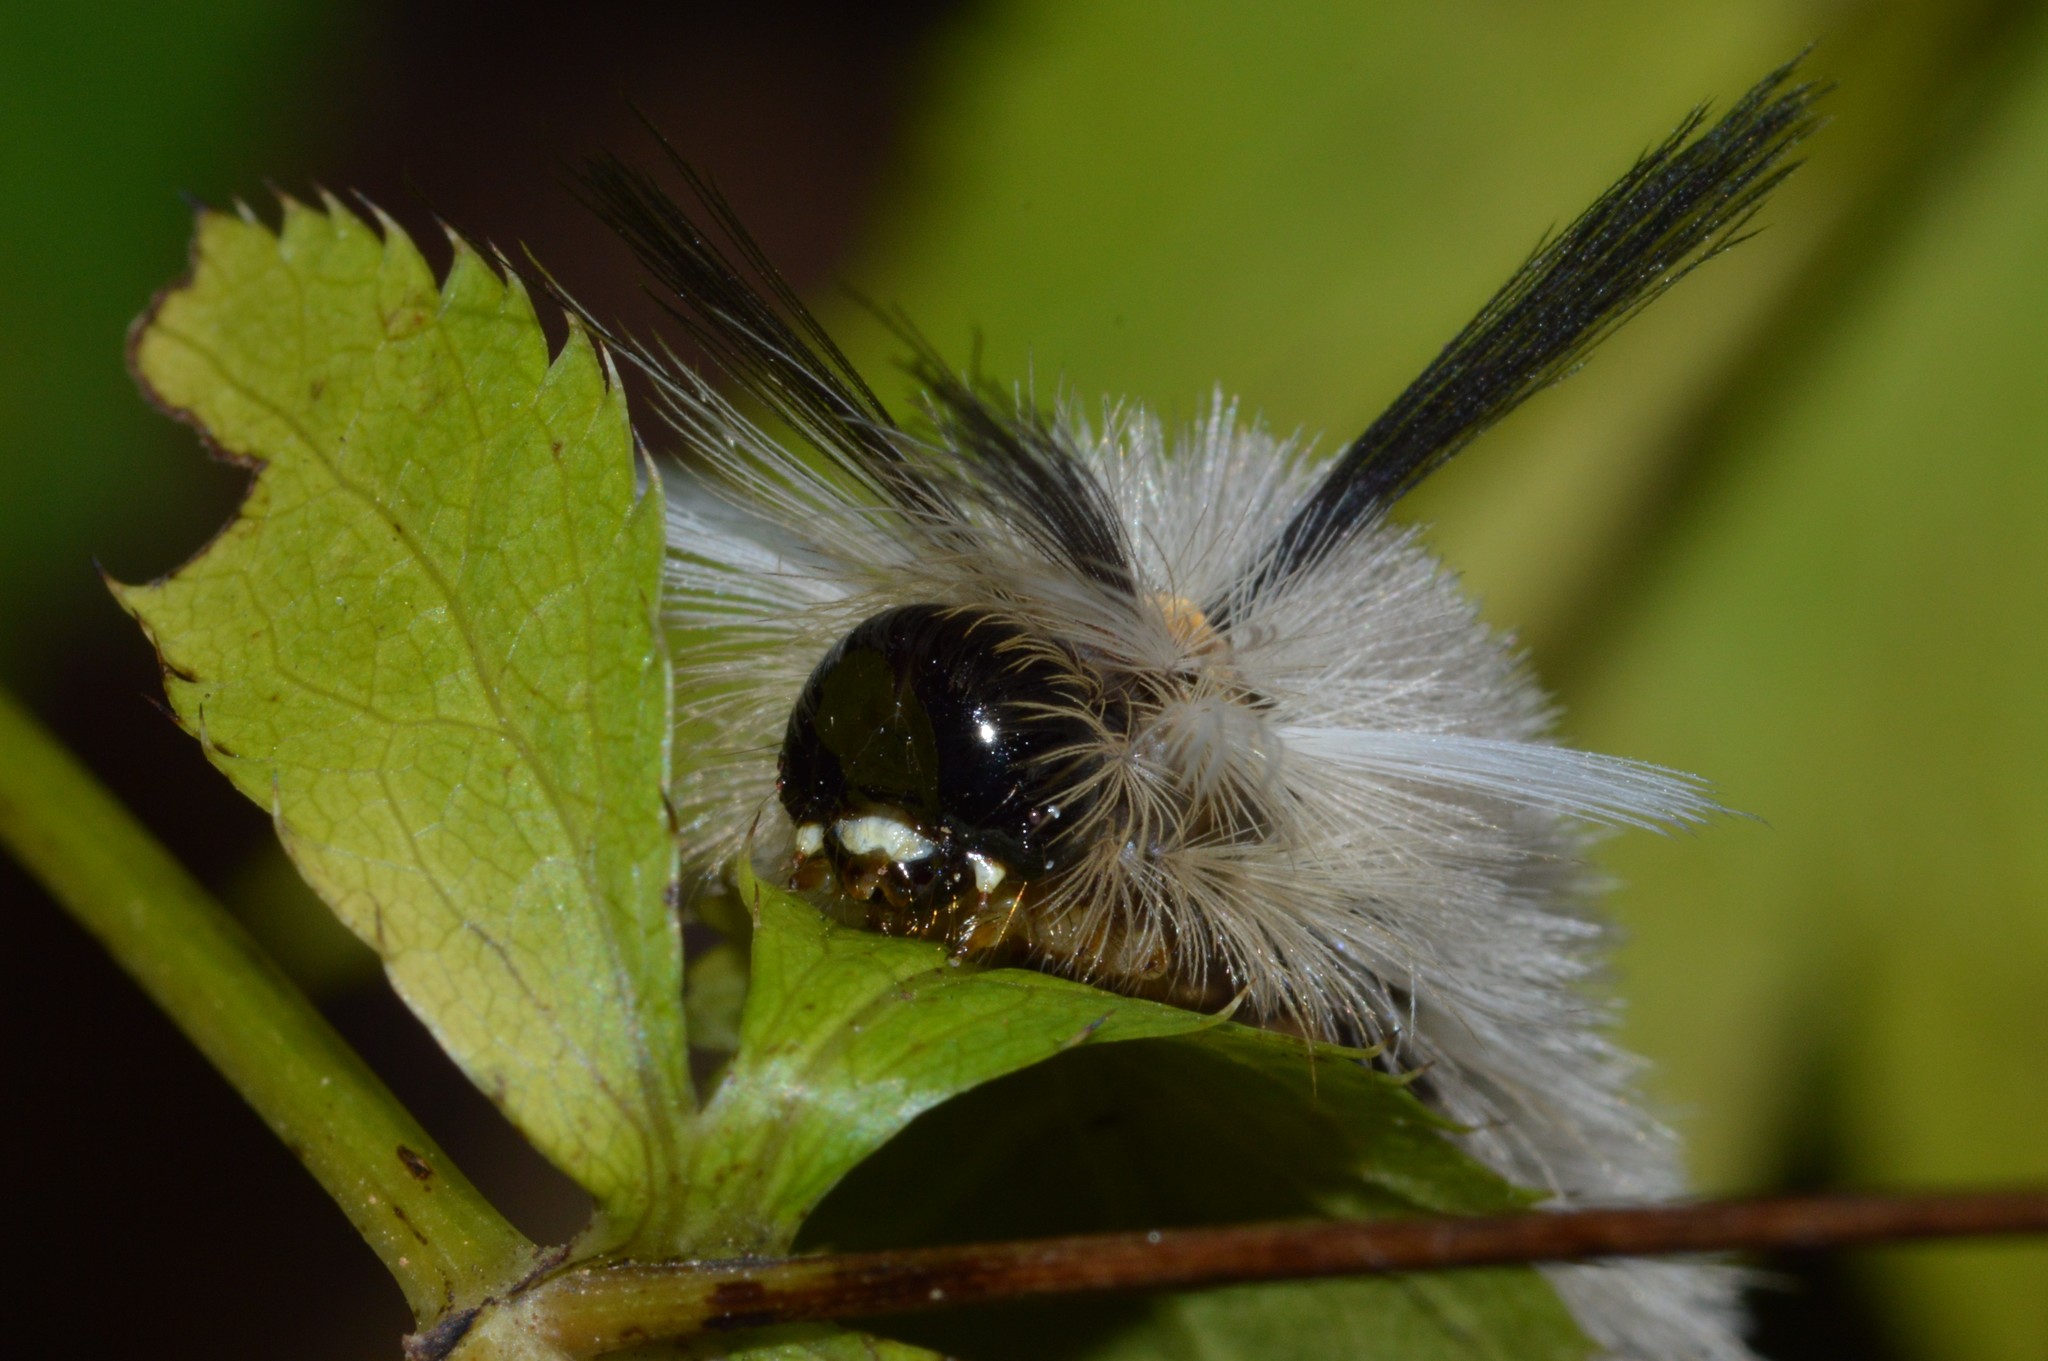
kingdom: Animalia
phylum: Arthropoda
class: Insecta
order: Lepidoptera
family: Erebidae
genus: Halysidota
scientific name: Halysidota tessellaris
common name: Banded tussock moth
